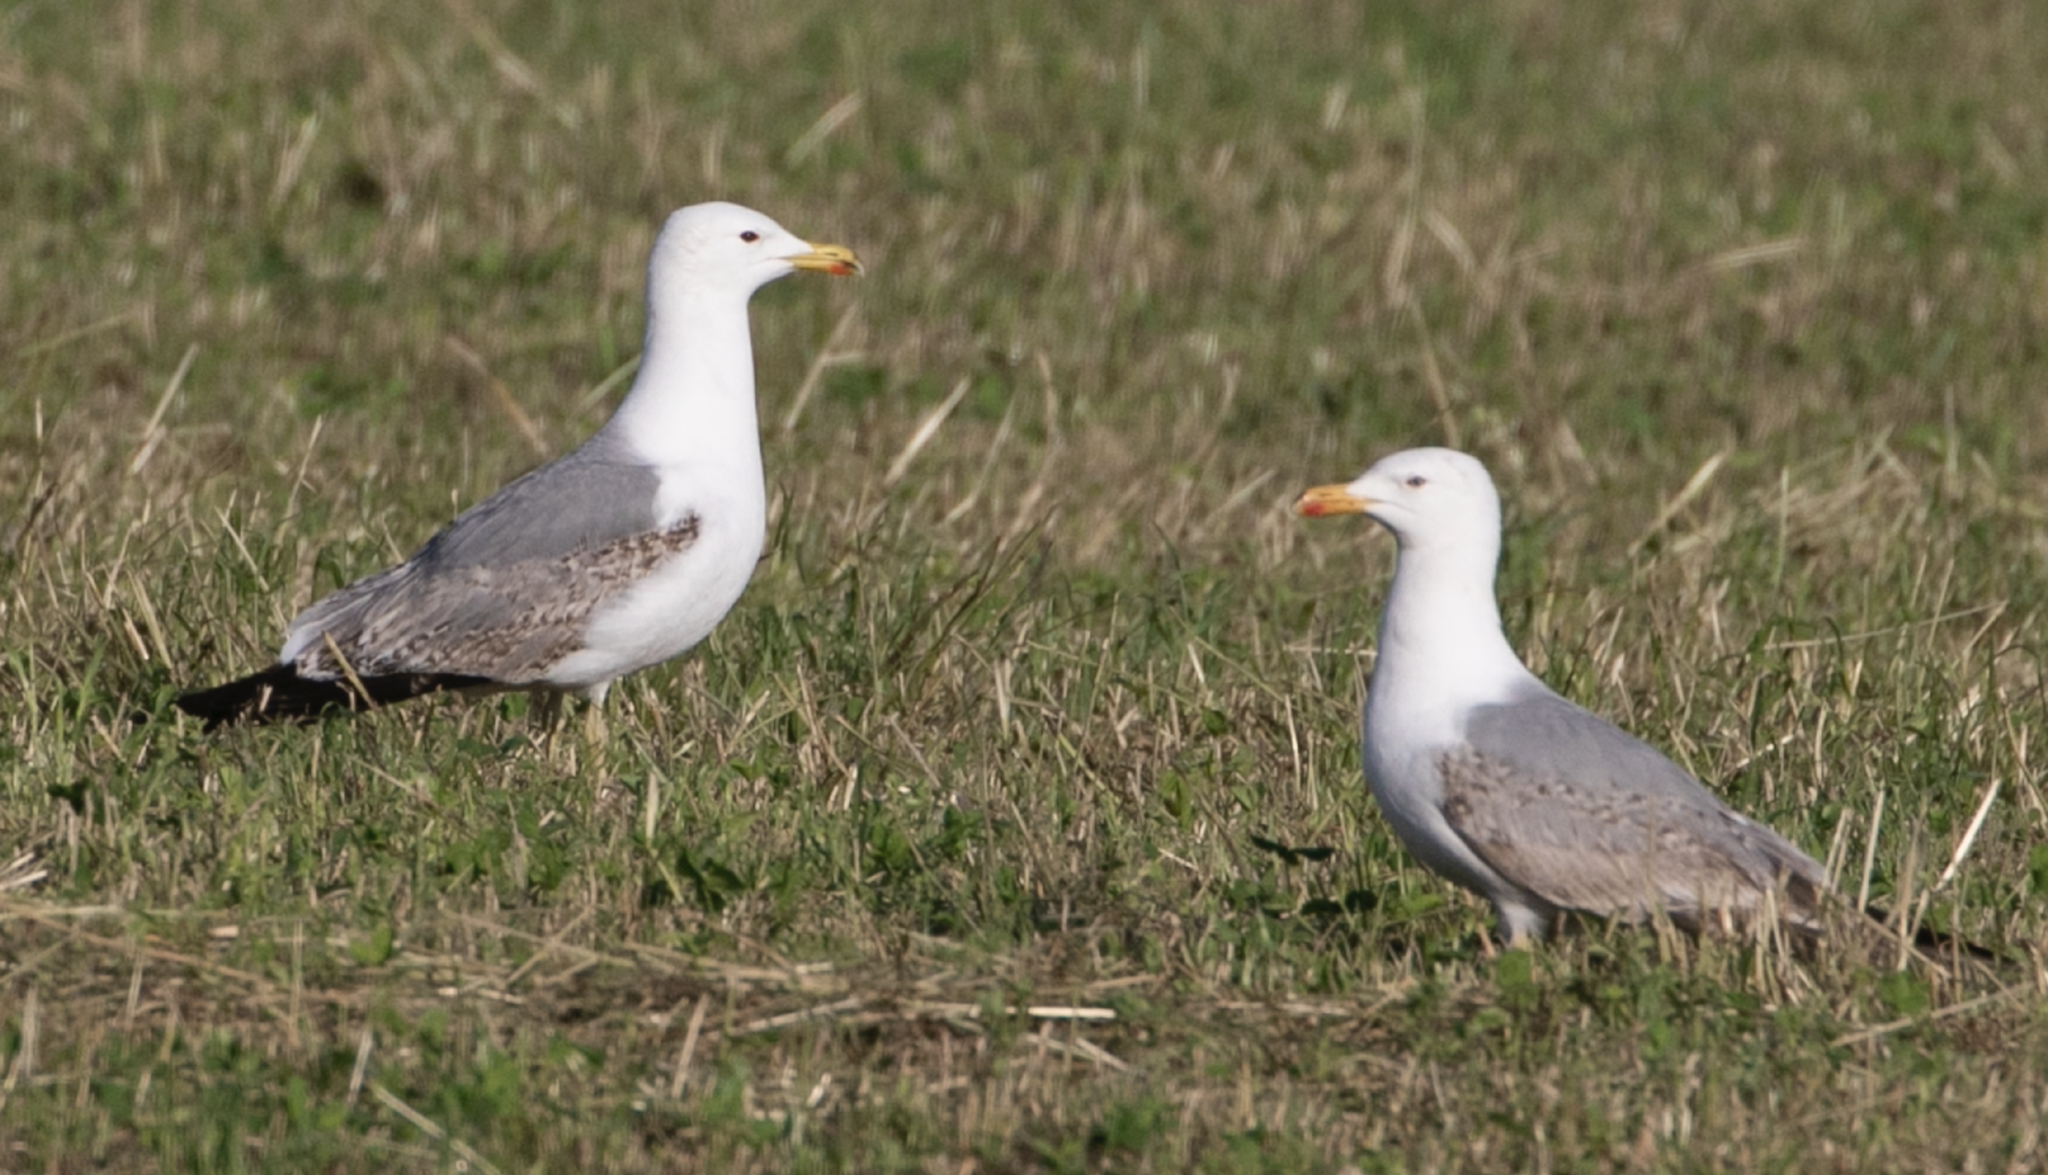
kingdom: Animalia
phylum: Chordata
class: Aves
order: Charadriiformes
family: Laridae
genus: Larus
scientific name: Larus michahellis
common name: Yellow-legged gull
